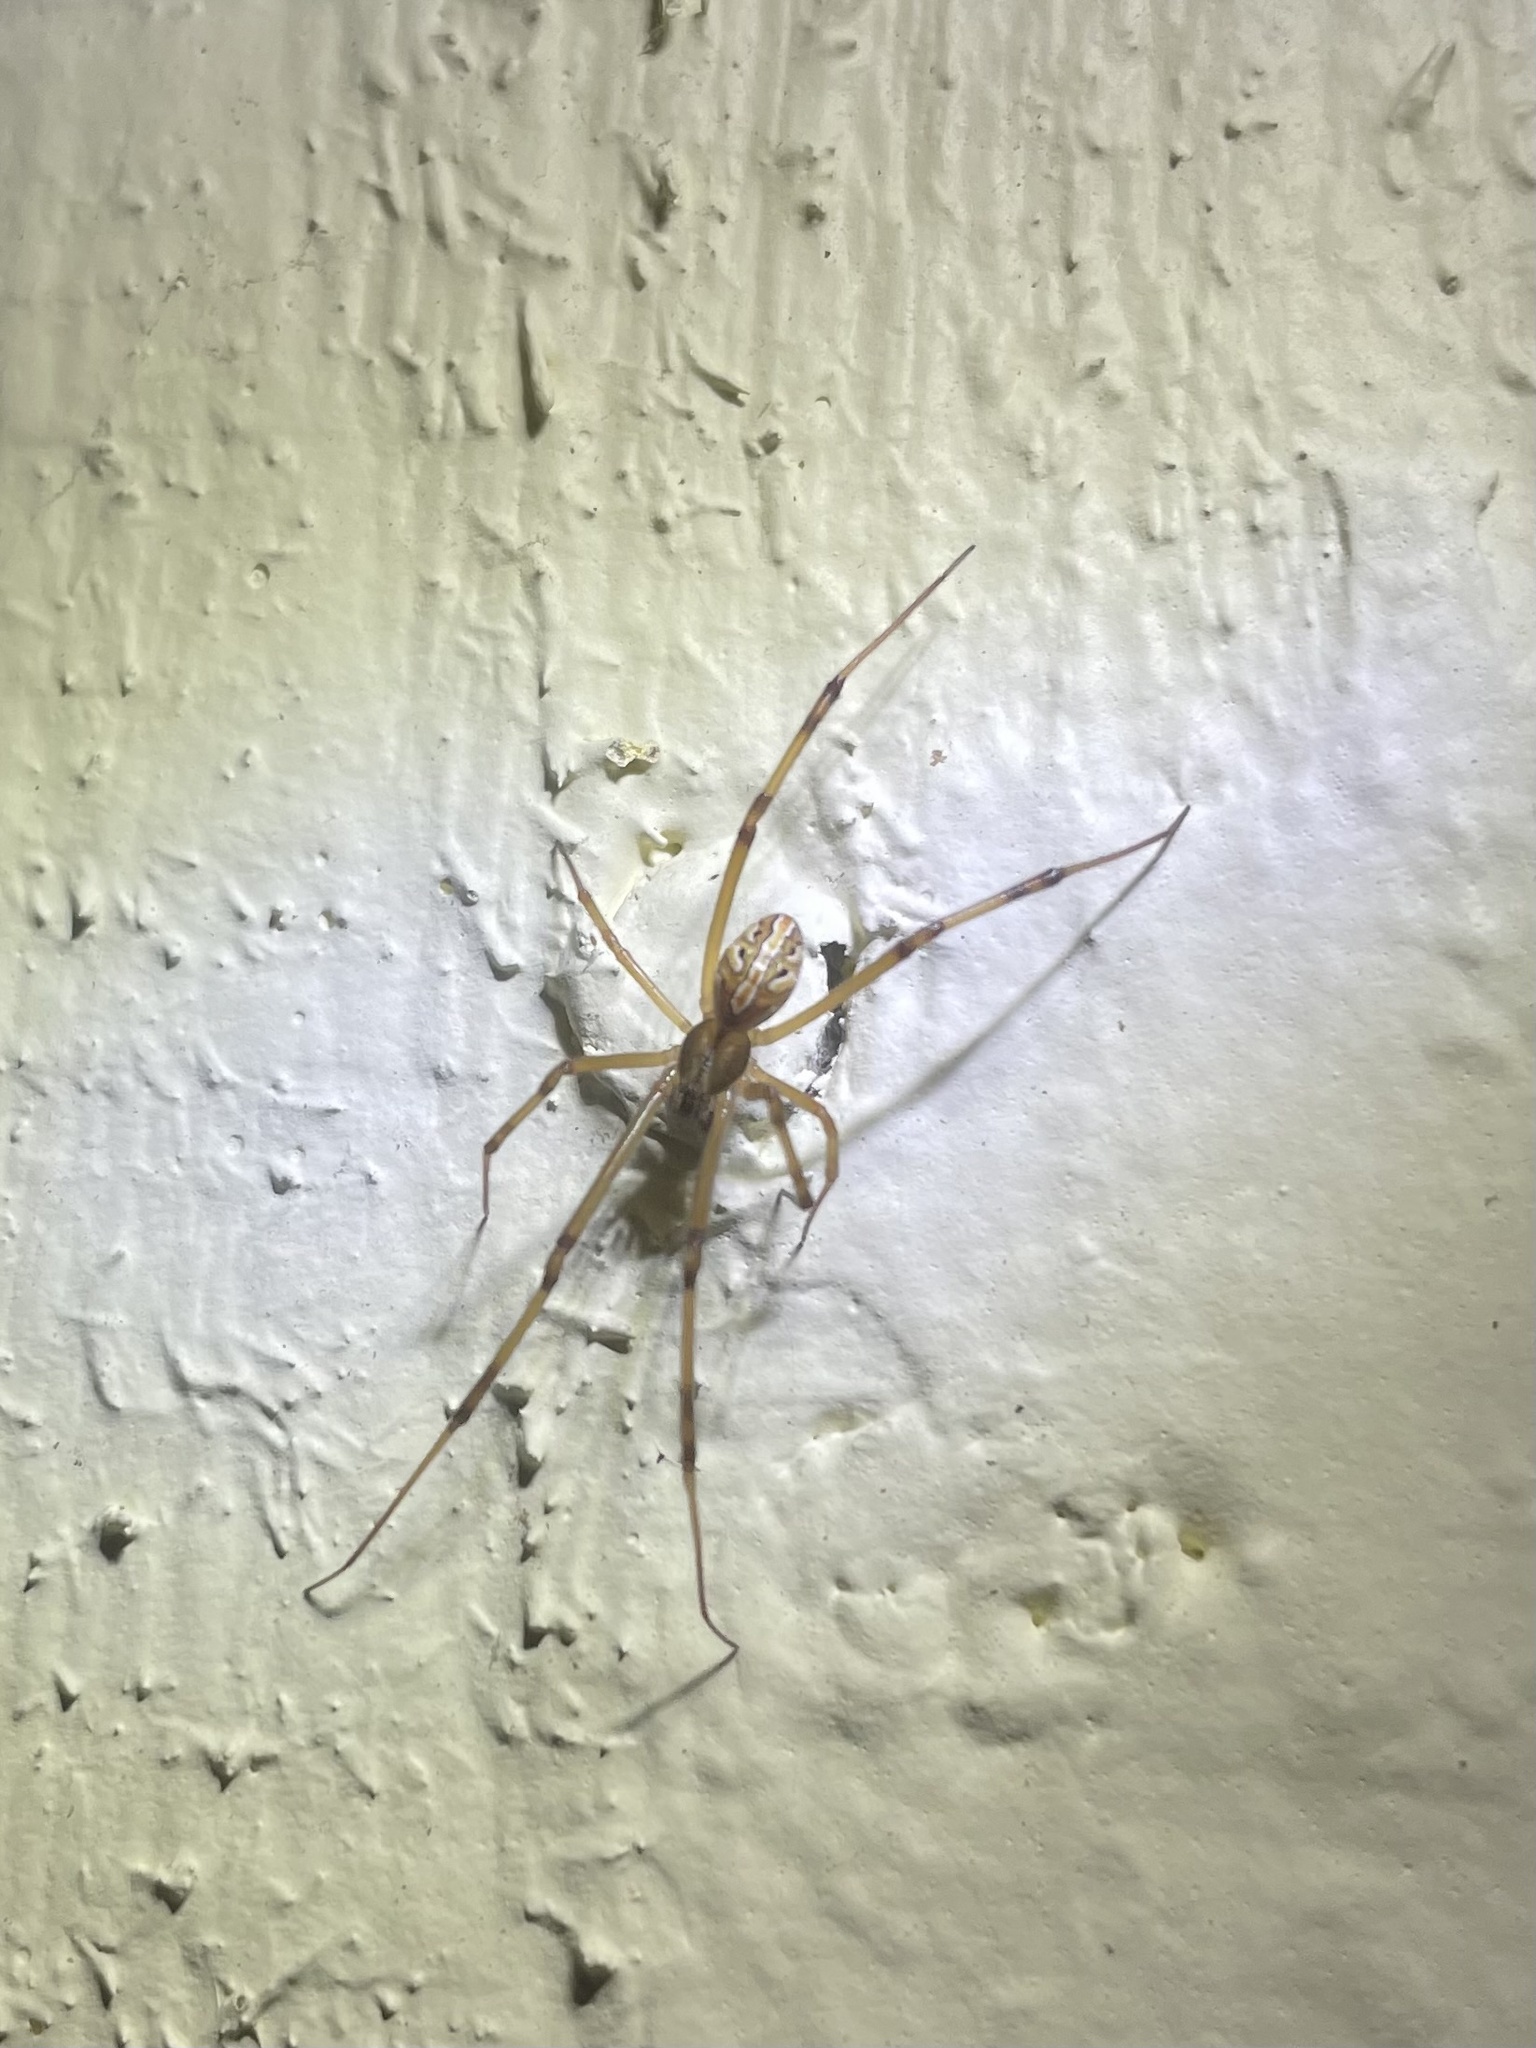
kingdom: Animalia
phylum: Arthropoda
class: Arachnida
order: Araneae
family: Theridiidae
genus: Latrodectus
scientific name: Latrodectus hesperus
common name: Western black widow
